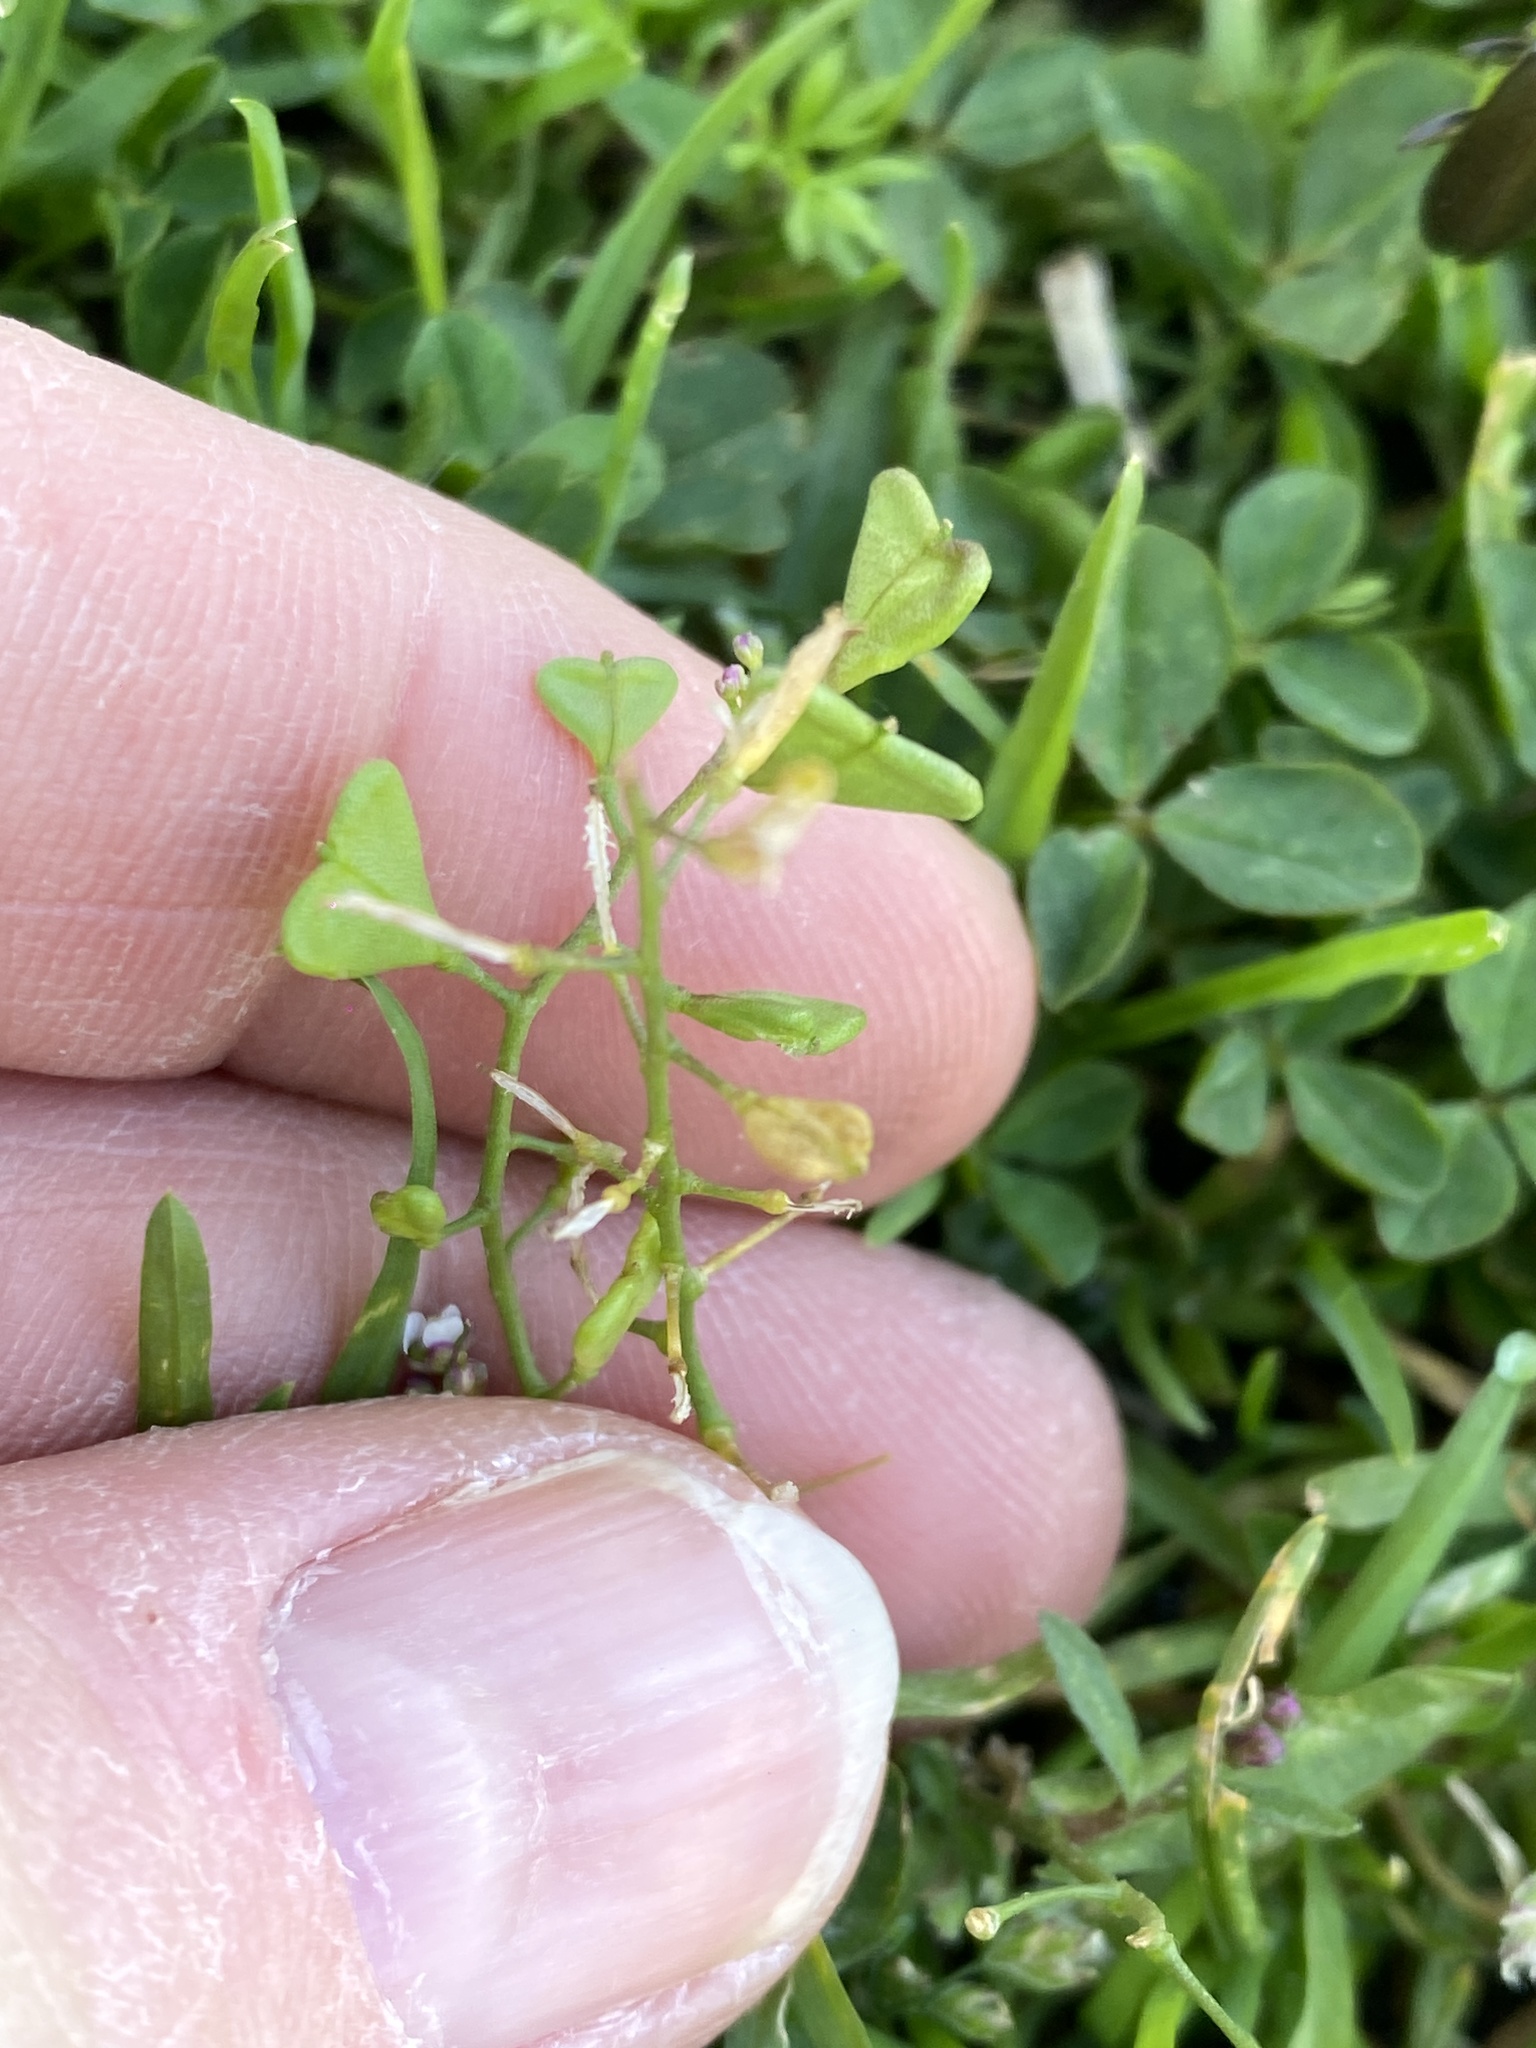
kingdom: Plantae
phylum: Tracheophyta
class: Magnoliopsida
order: Brassicales
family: Brassicaceae
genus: Capsella
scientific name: Capsella bursa-pastoris
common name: Shepherd's purse
